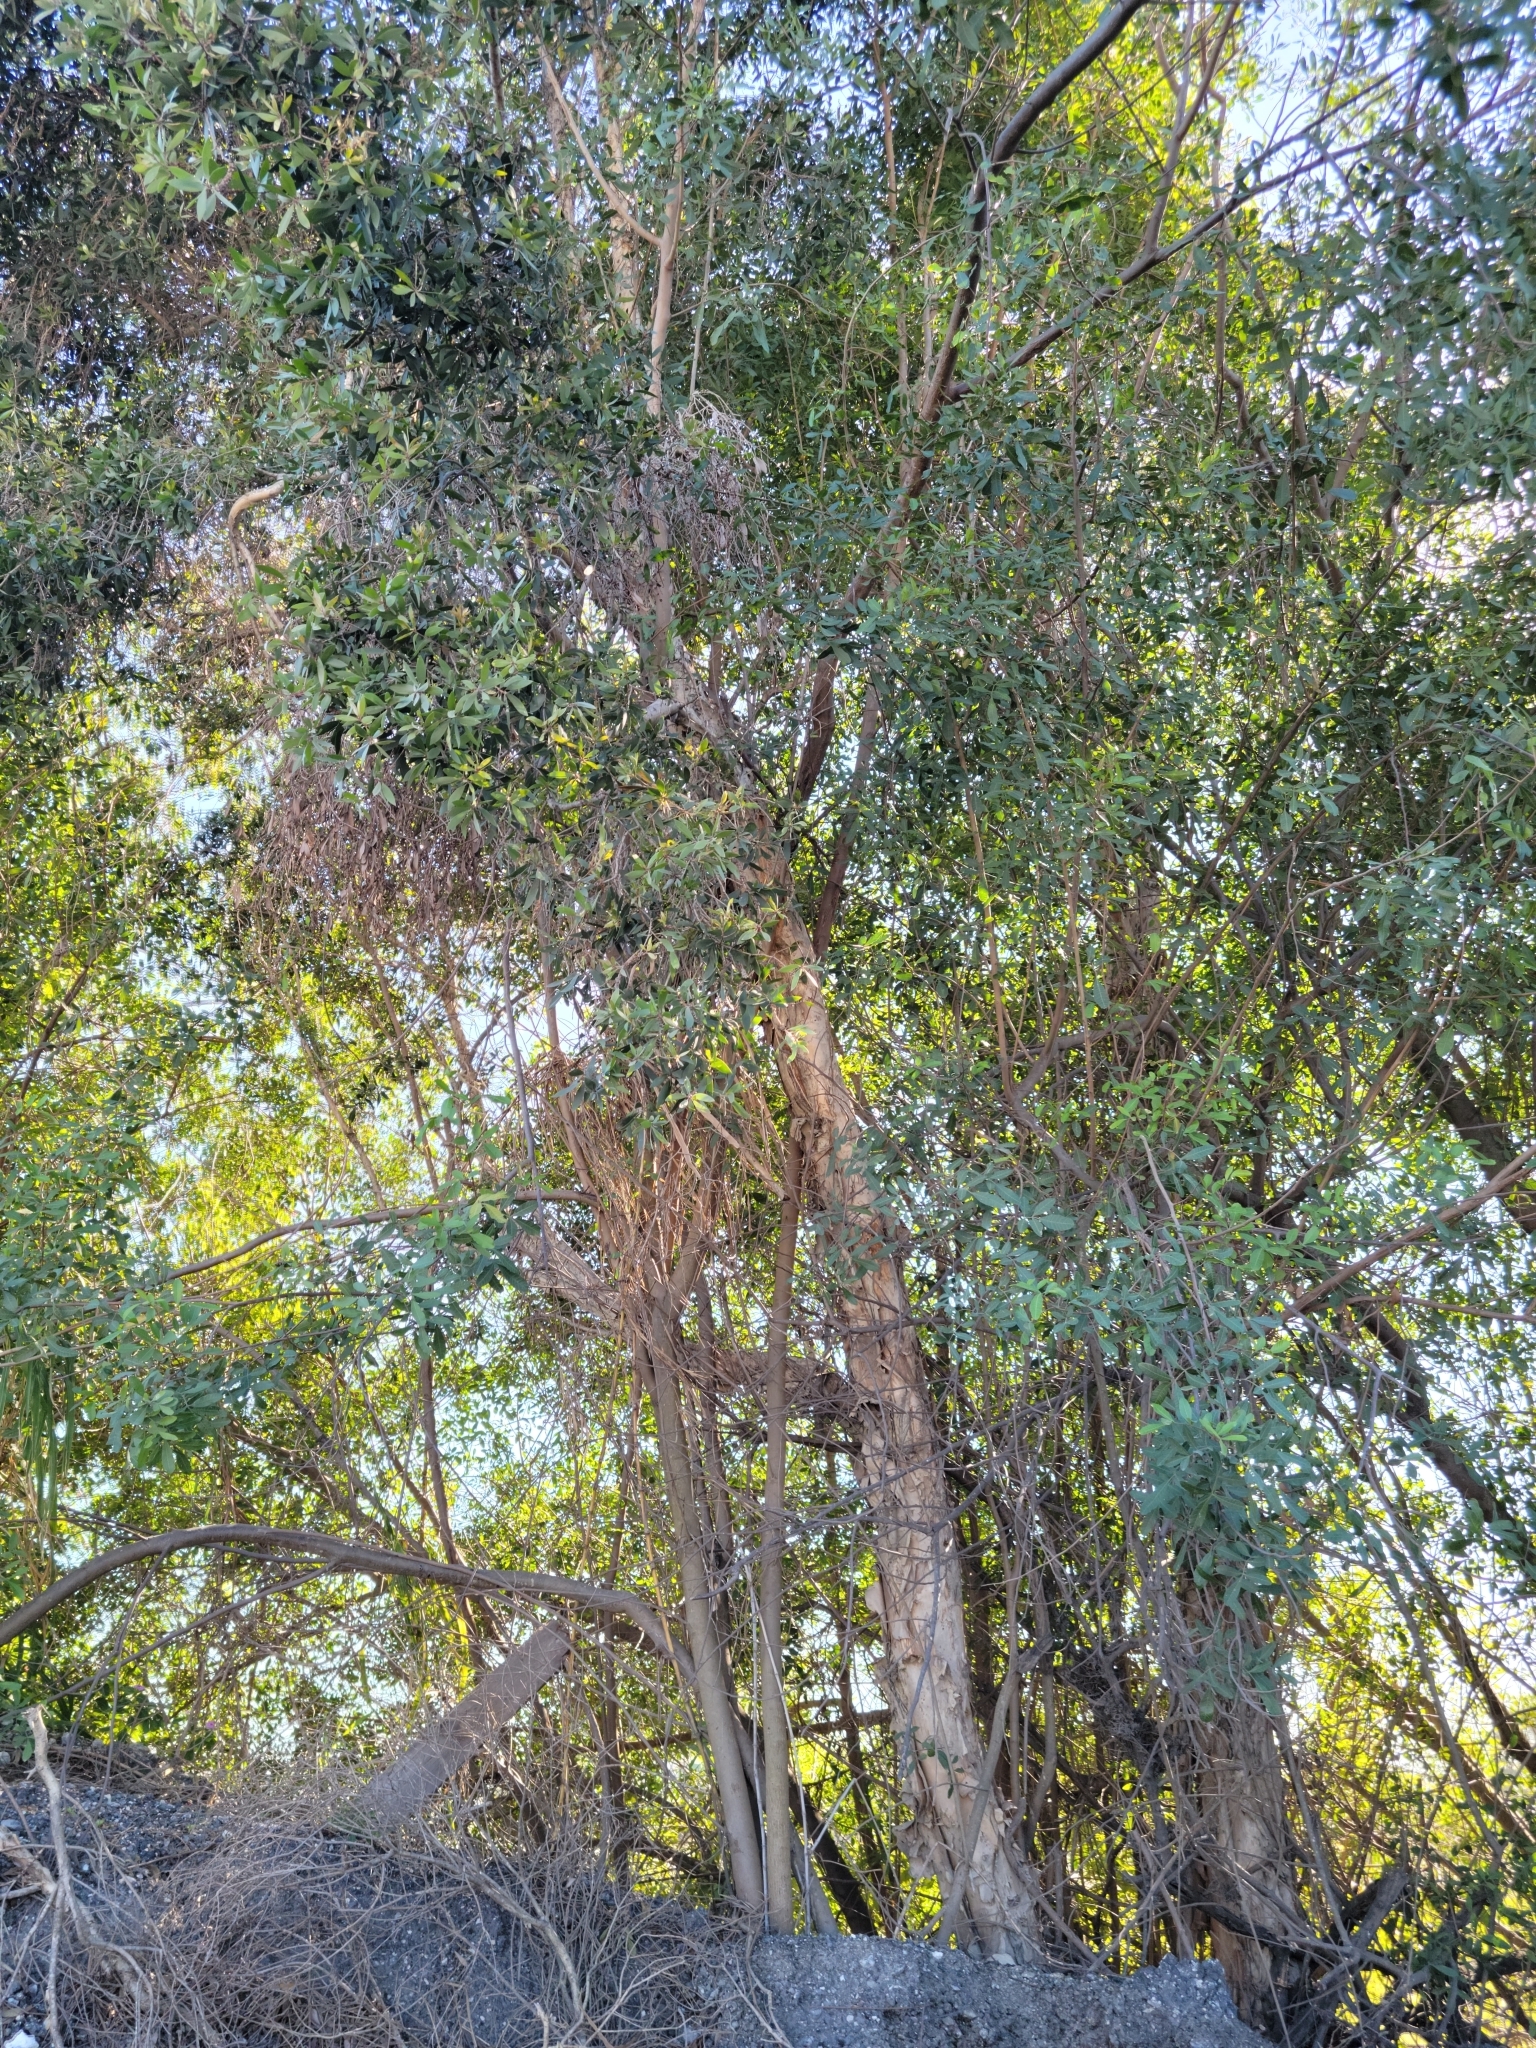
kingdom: Plantae
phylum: Tracheophyta
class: Magnoliopsida
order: Myrtales
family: Myrtaceae
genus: Melaleuca
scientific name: Melaleuca quinquenervia
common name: Punktree
